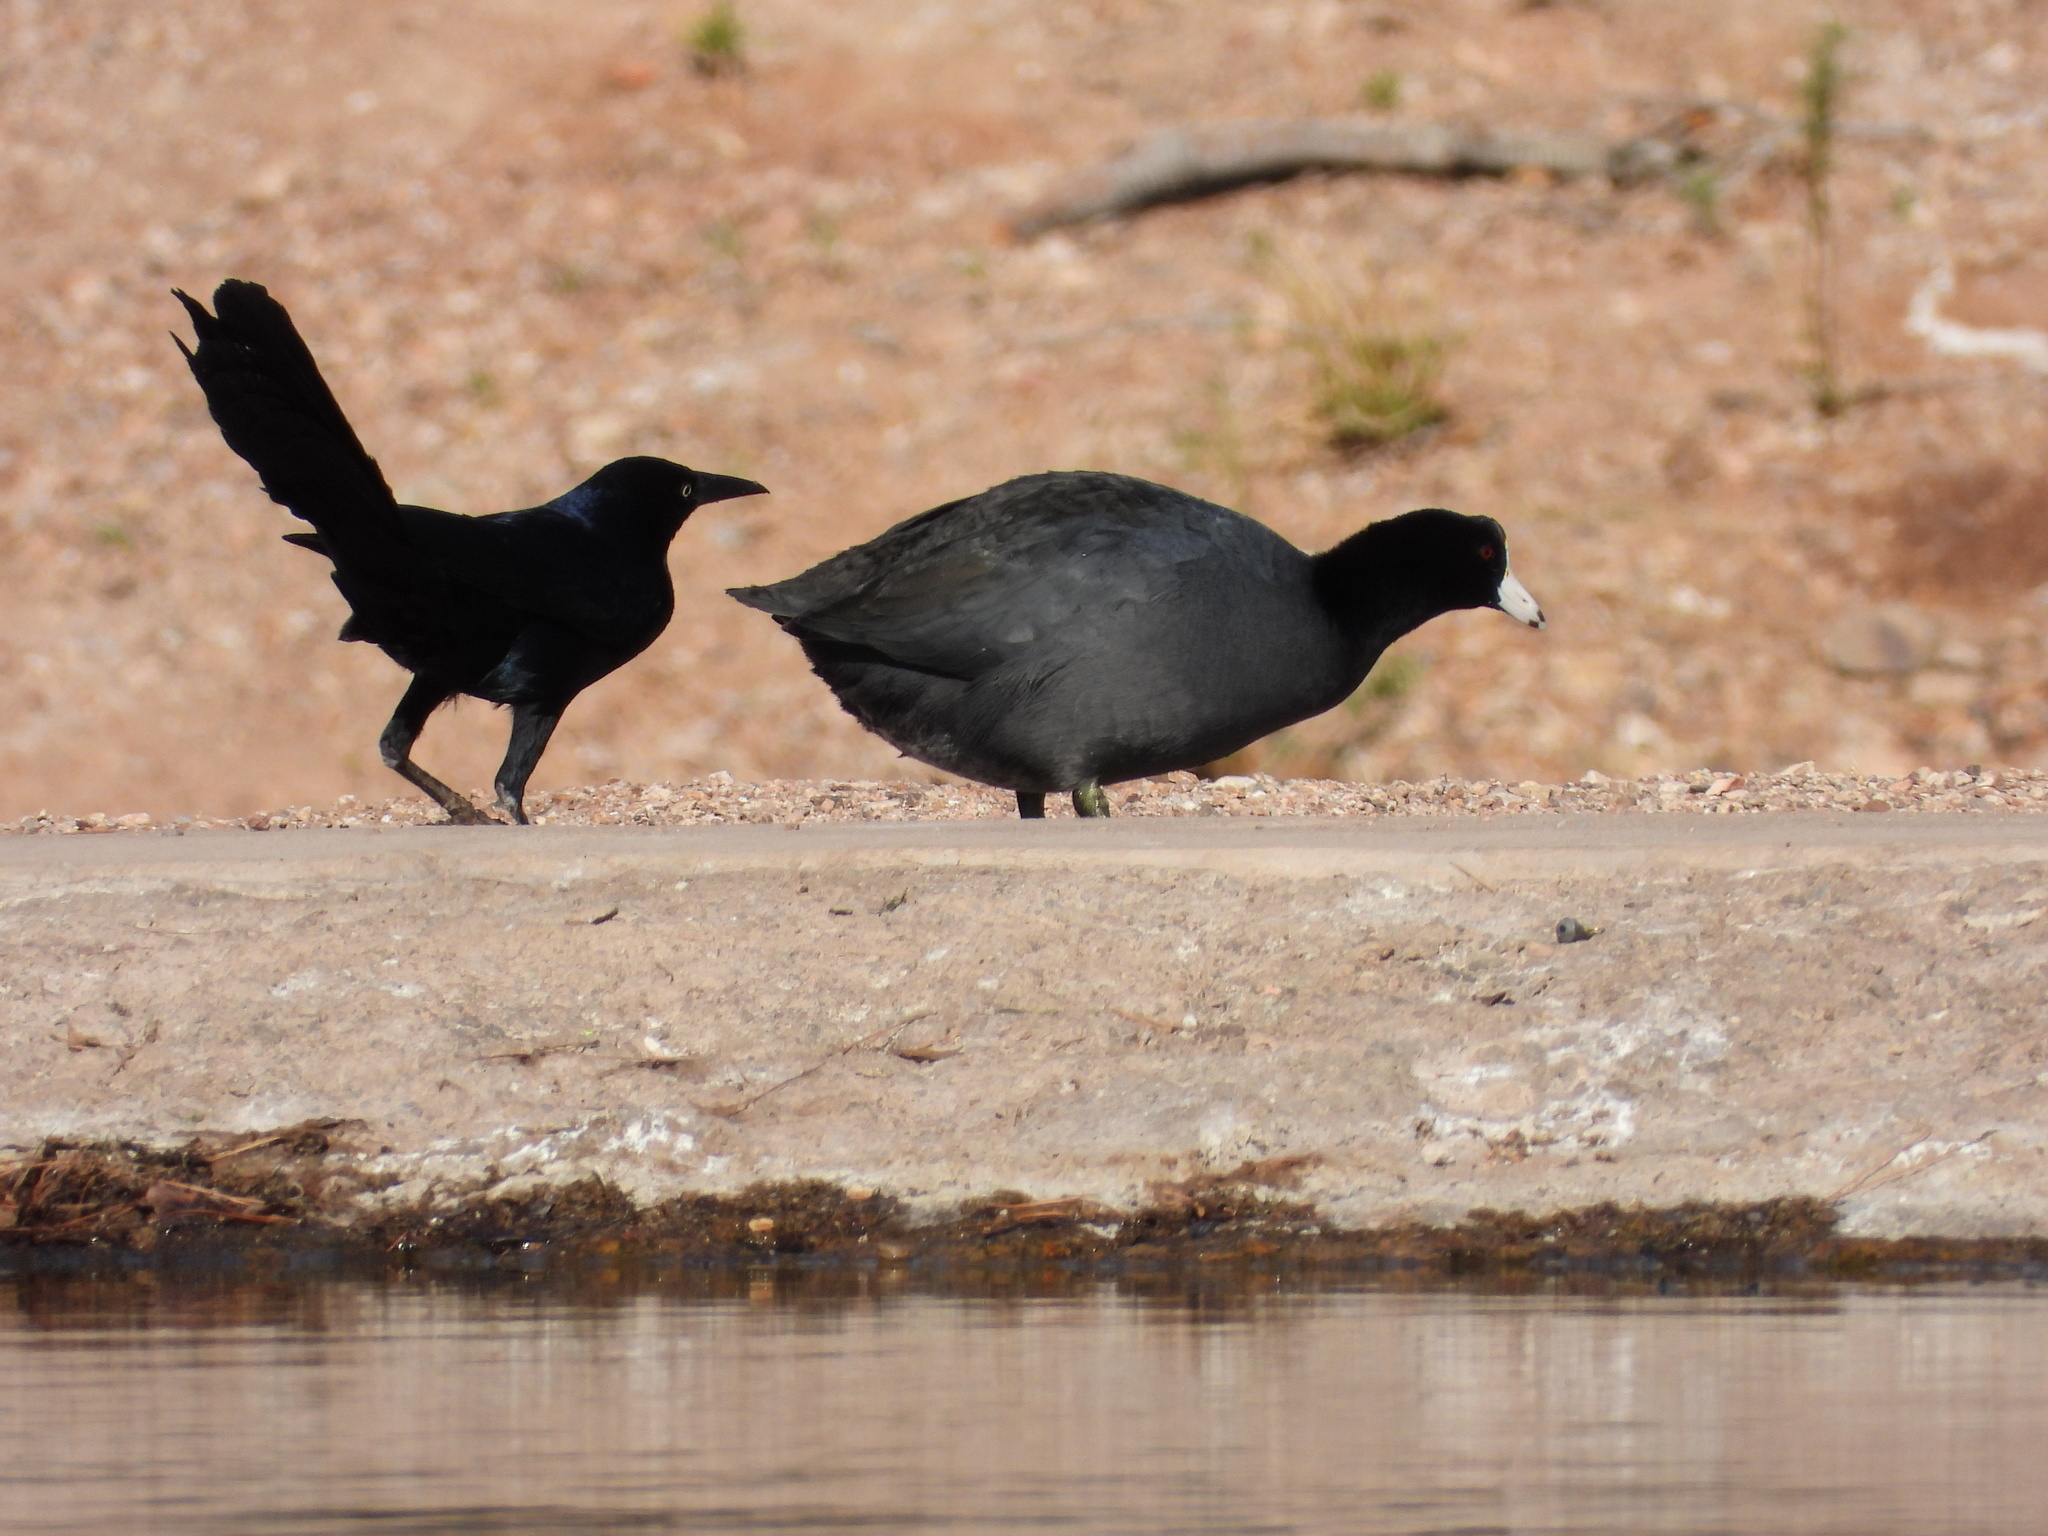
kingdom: Animalia
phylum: Chordata
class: Aves
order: Gruiformes
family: Rallidae
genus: Fulica
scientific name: Fulica americana
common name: American coot
